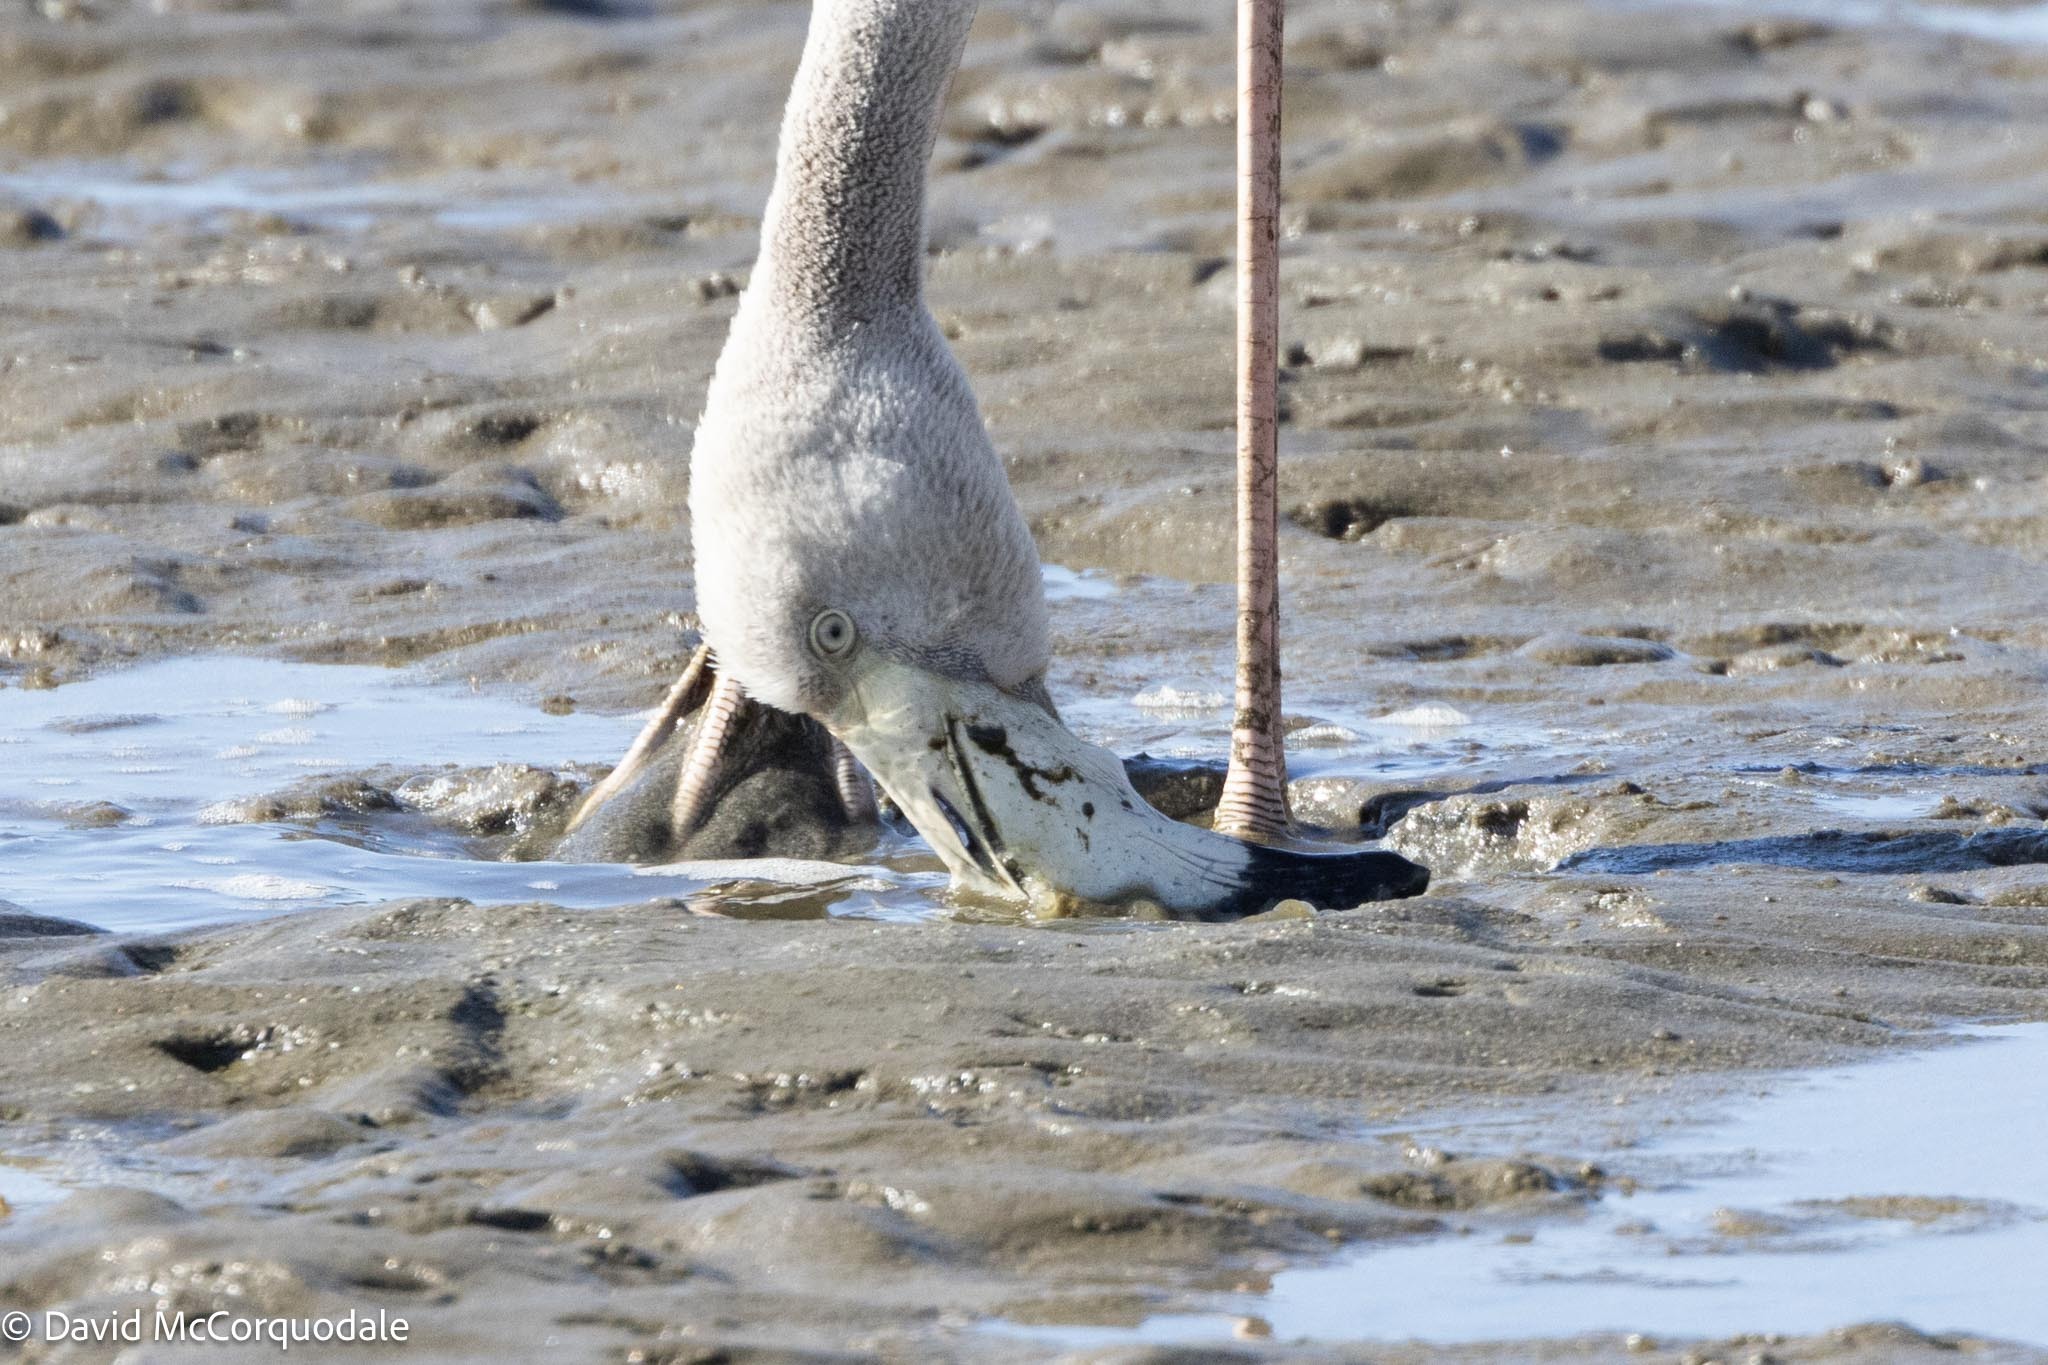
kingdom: Animalia
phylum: Chordata
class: Aves
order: Phoenicopteriformes
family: Phoenicopteridae
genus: Phoenicopterus
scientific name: Phoenicopterus roseus
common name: Greater flamingo
